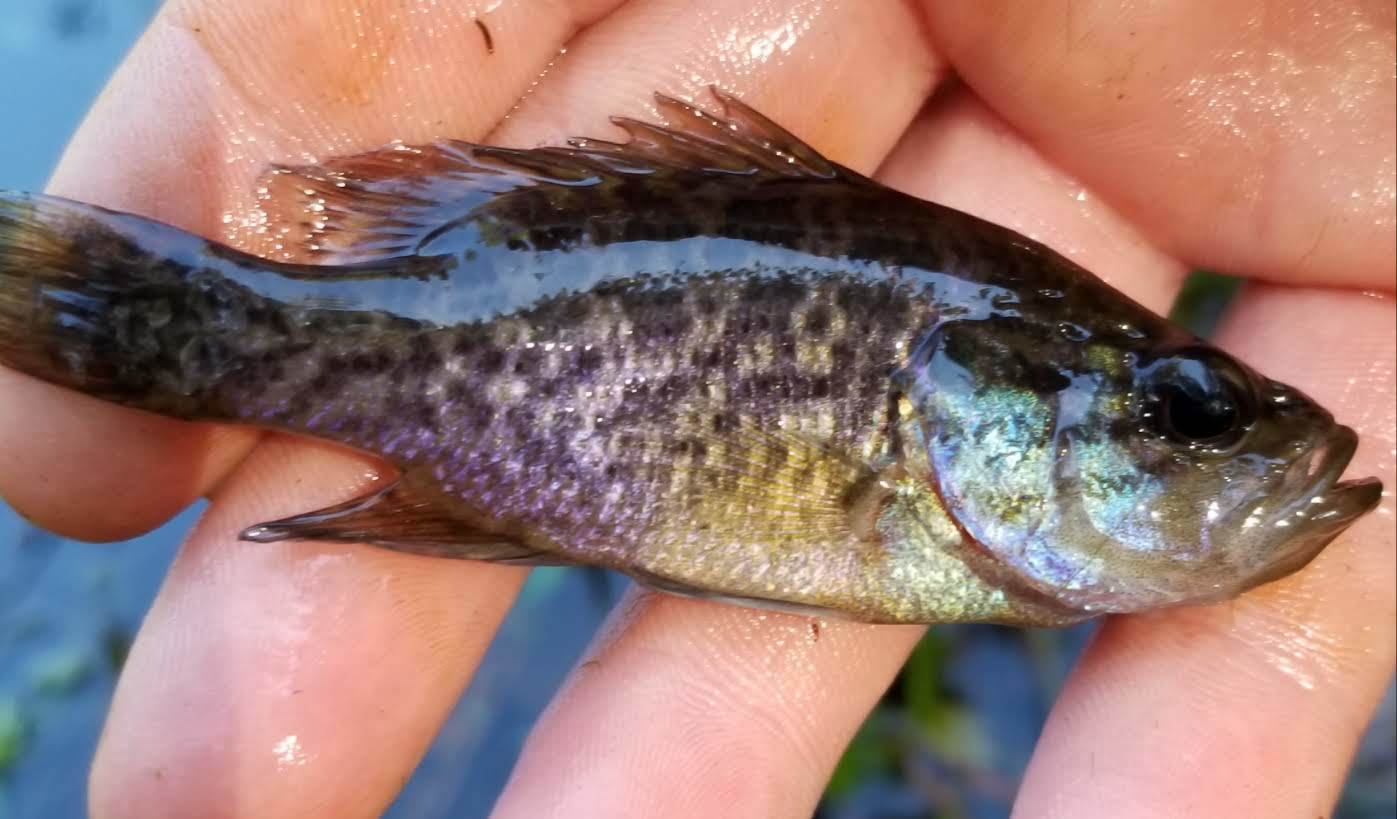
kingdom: Animalia
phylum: Chordata
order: Perciformes
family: Centrarchidae
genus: Lepomis
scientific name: Lepomis gulosus
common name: Warmouth
